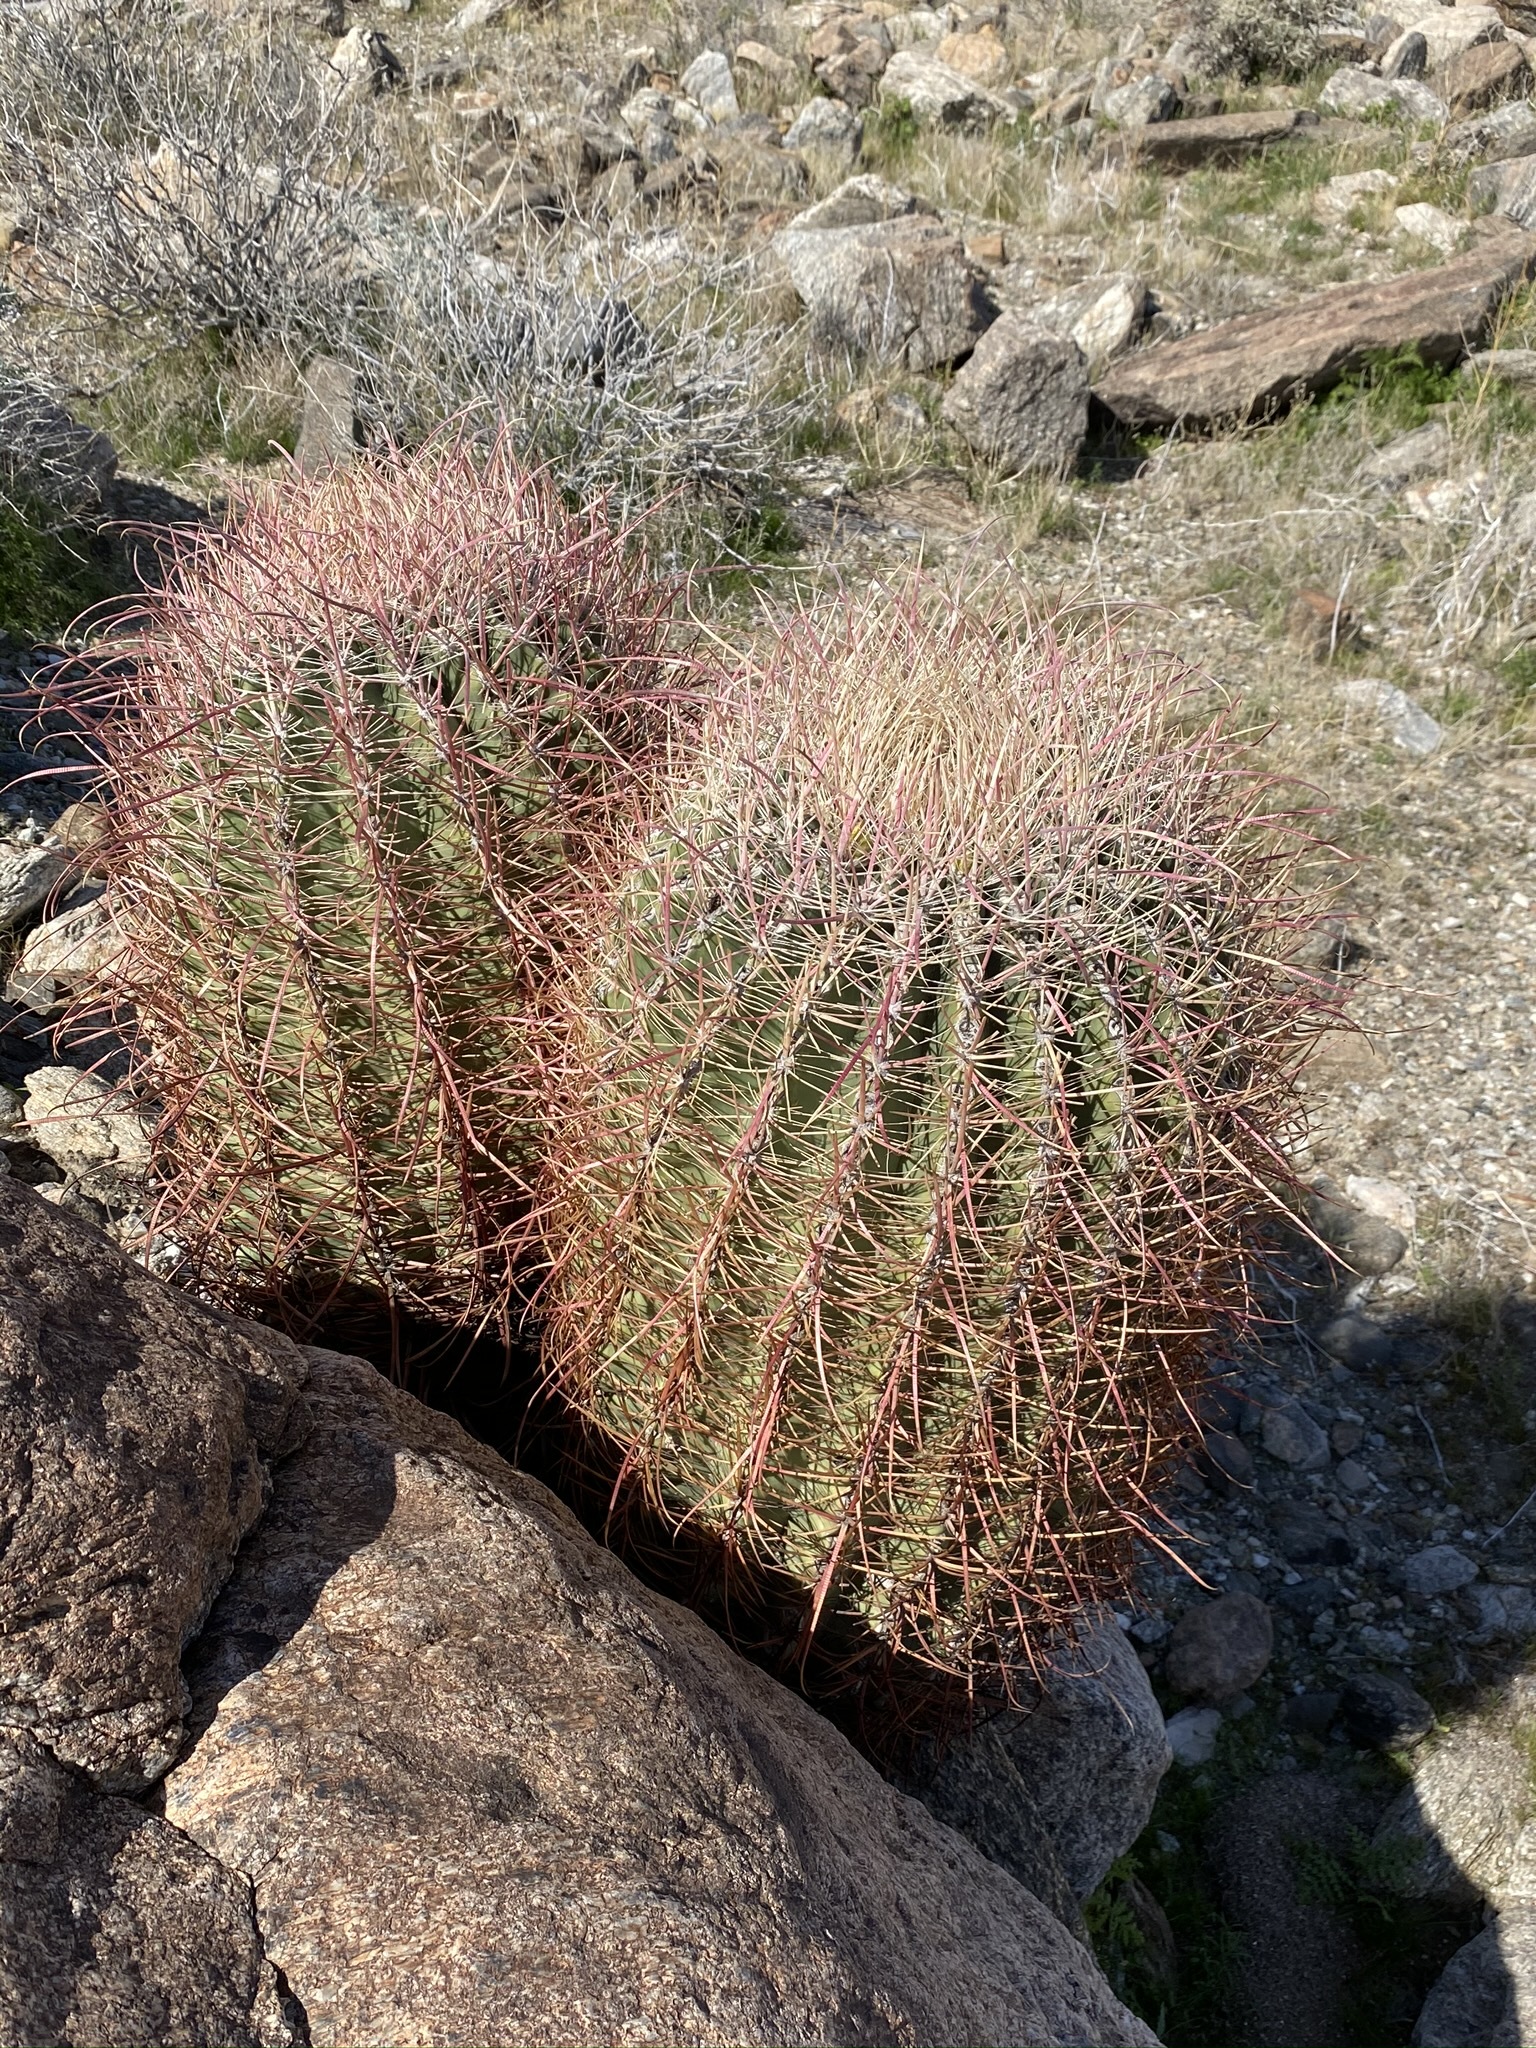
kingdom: Plantae
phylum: Tracheophyta
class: Magnoliopsida
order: Caryophyllales
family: Cactaceae
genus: Ferocactus
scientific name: Ferocactus cylindraceus
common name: California barrel cactus
